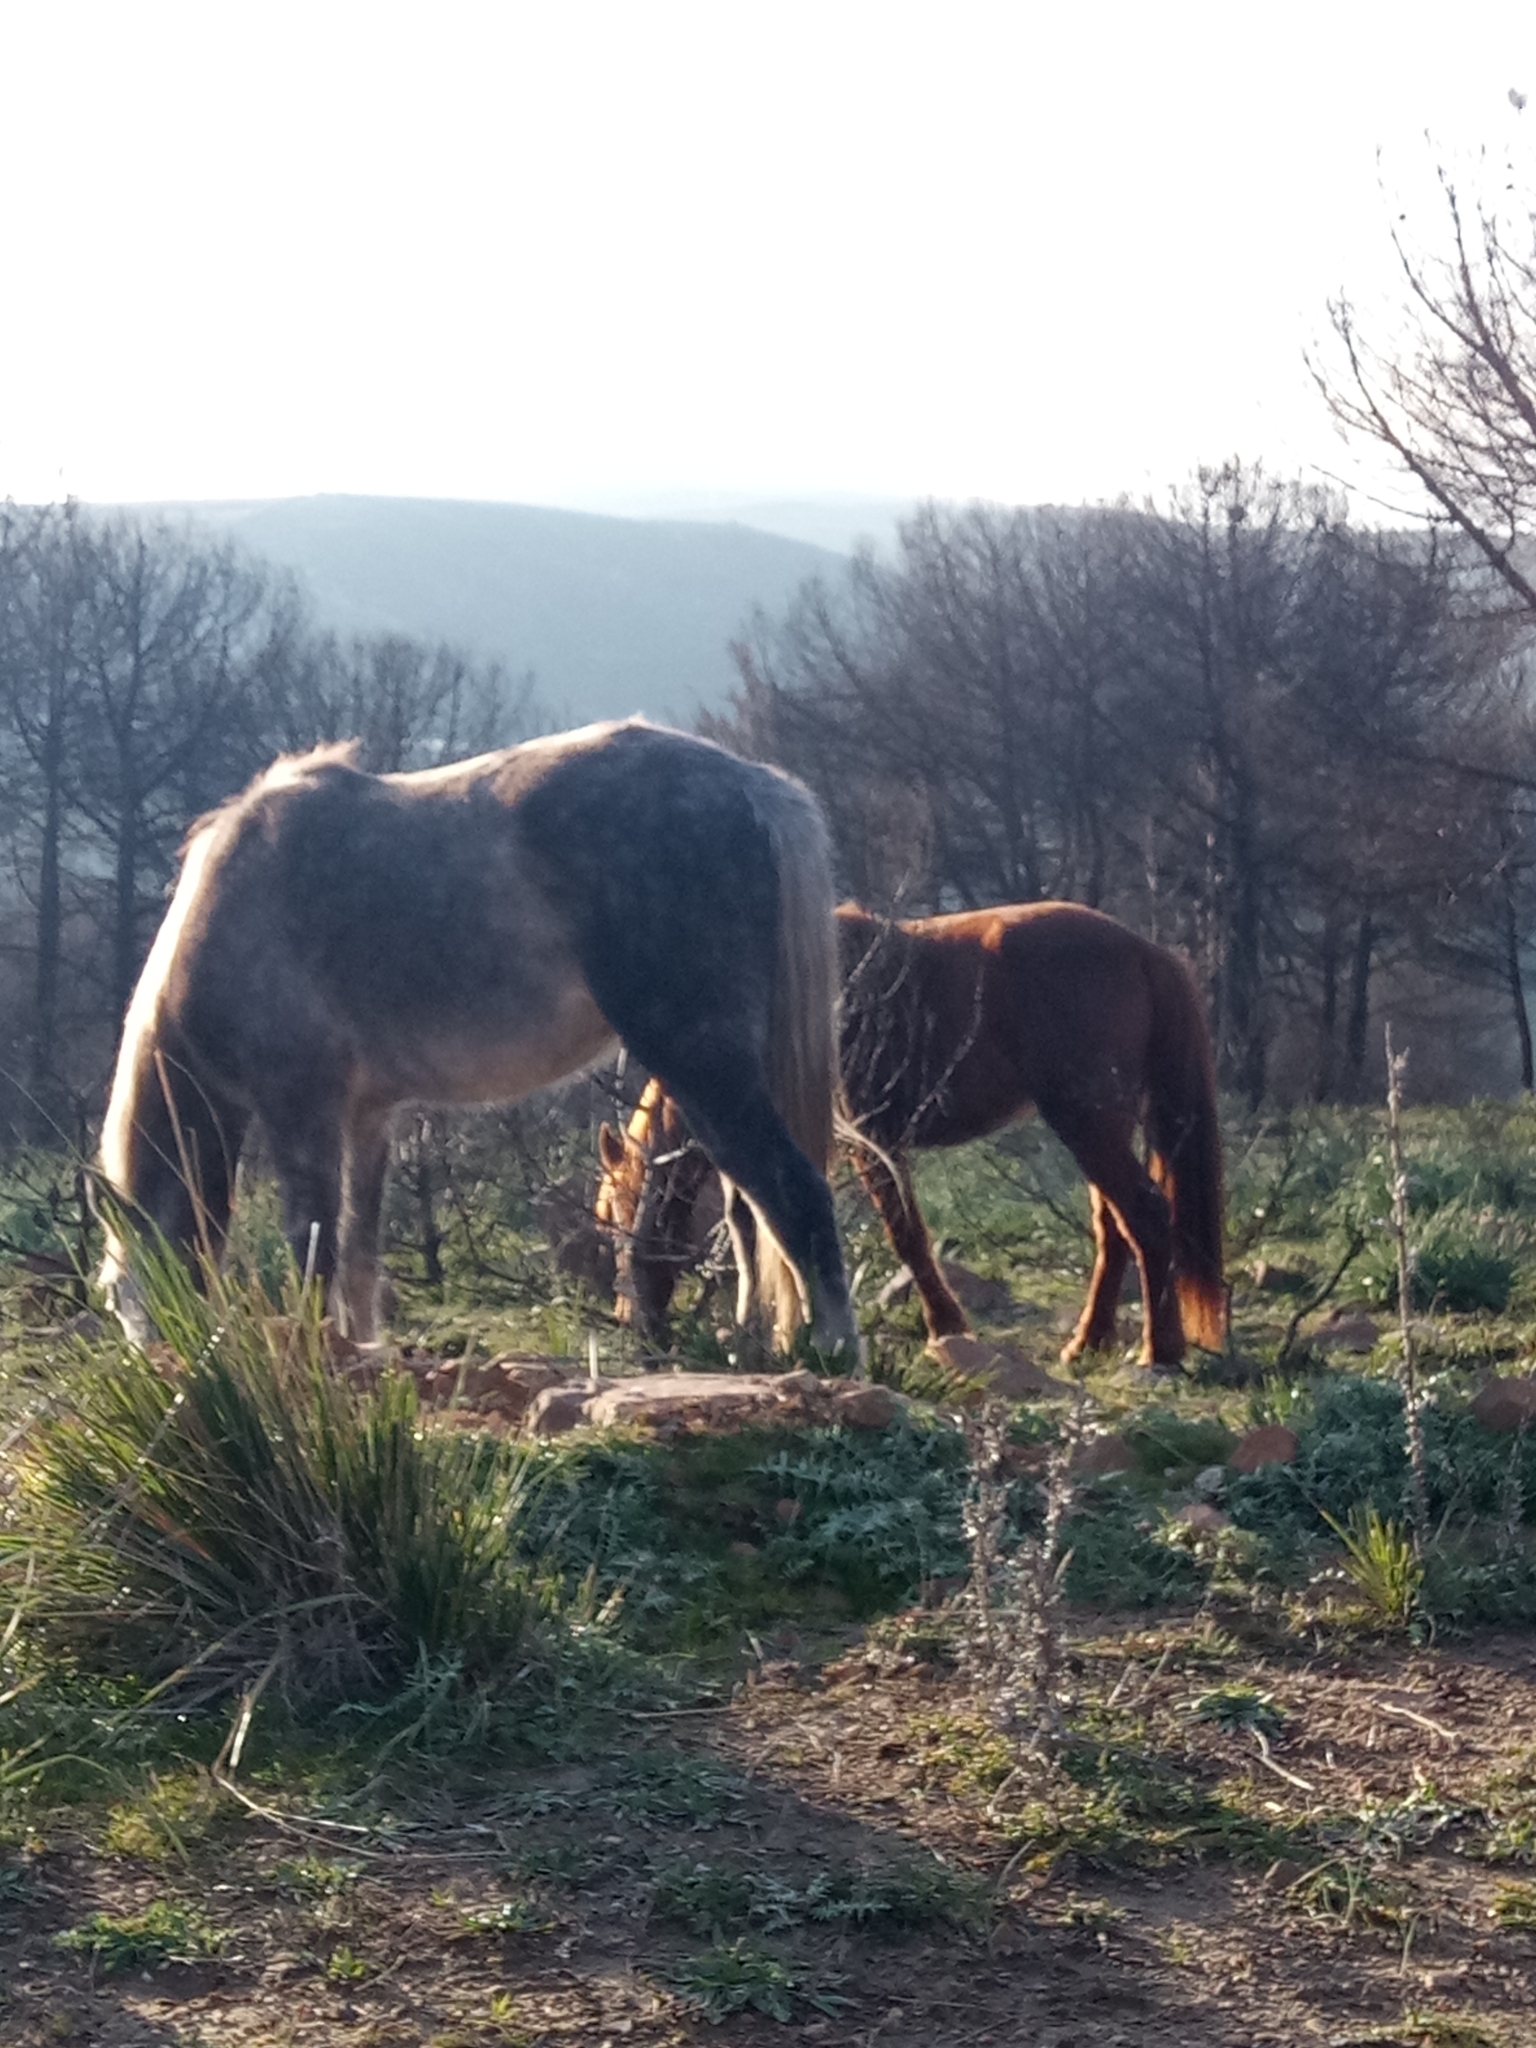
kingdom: Animalia
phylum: Chordata
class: Mammalia
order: Perissodactyla
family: Equidae
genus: Equus
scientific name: Equus caballus
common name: Horse
